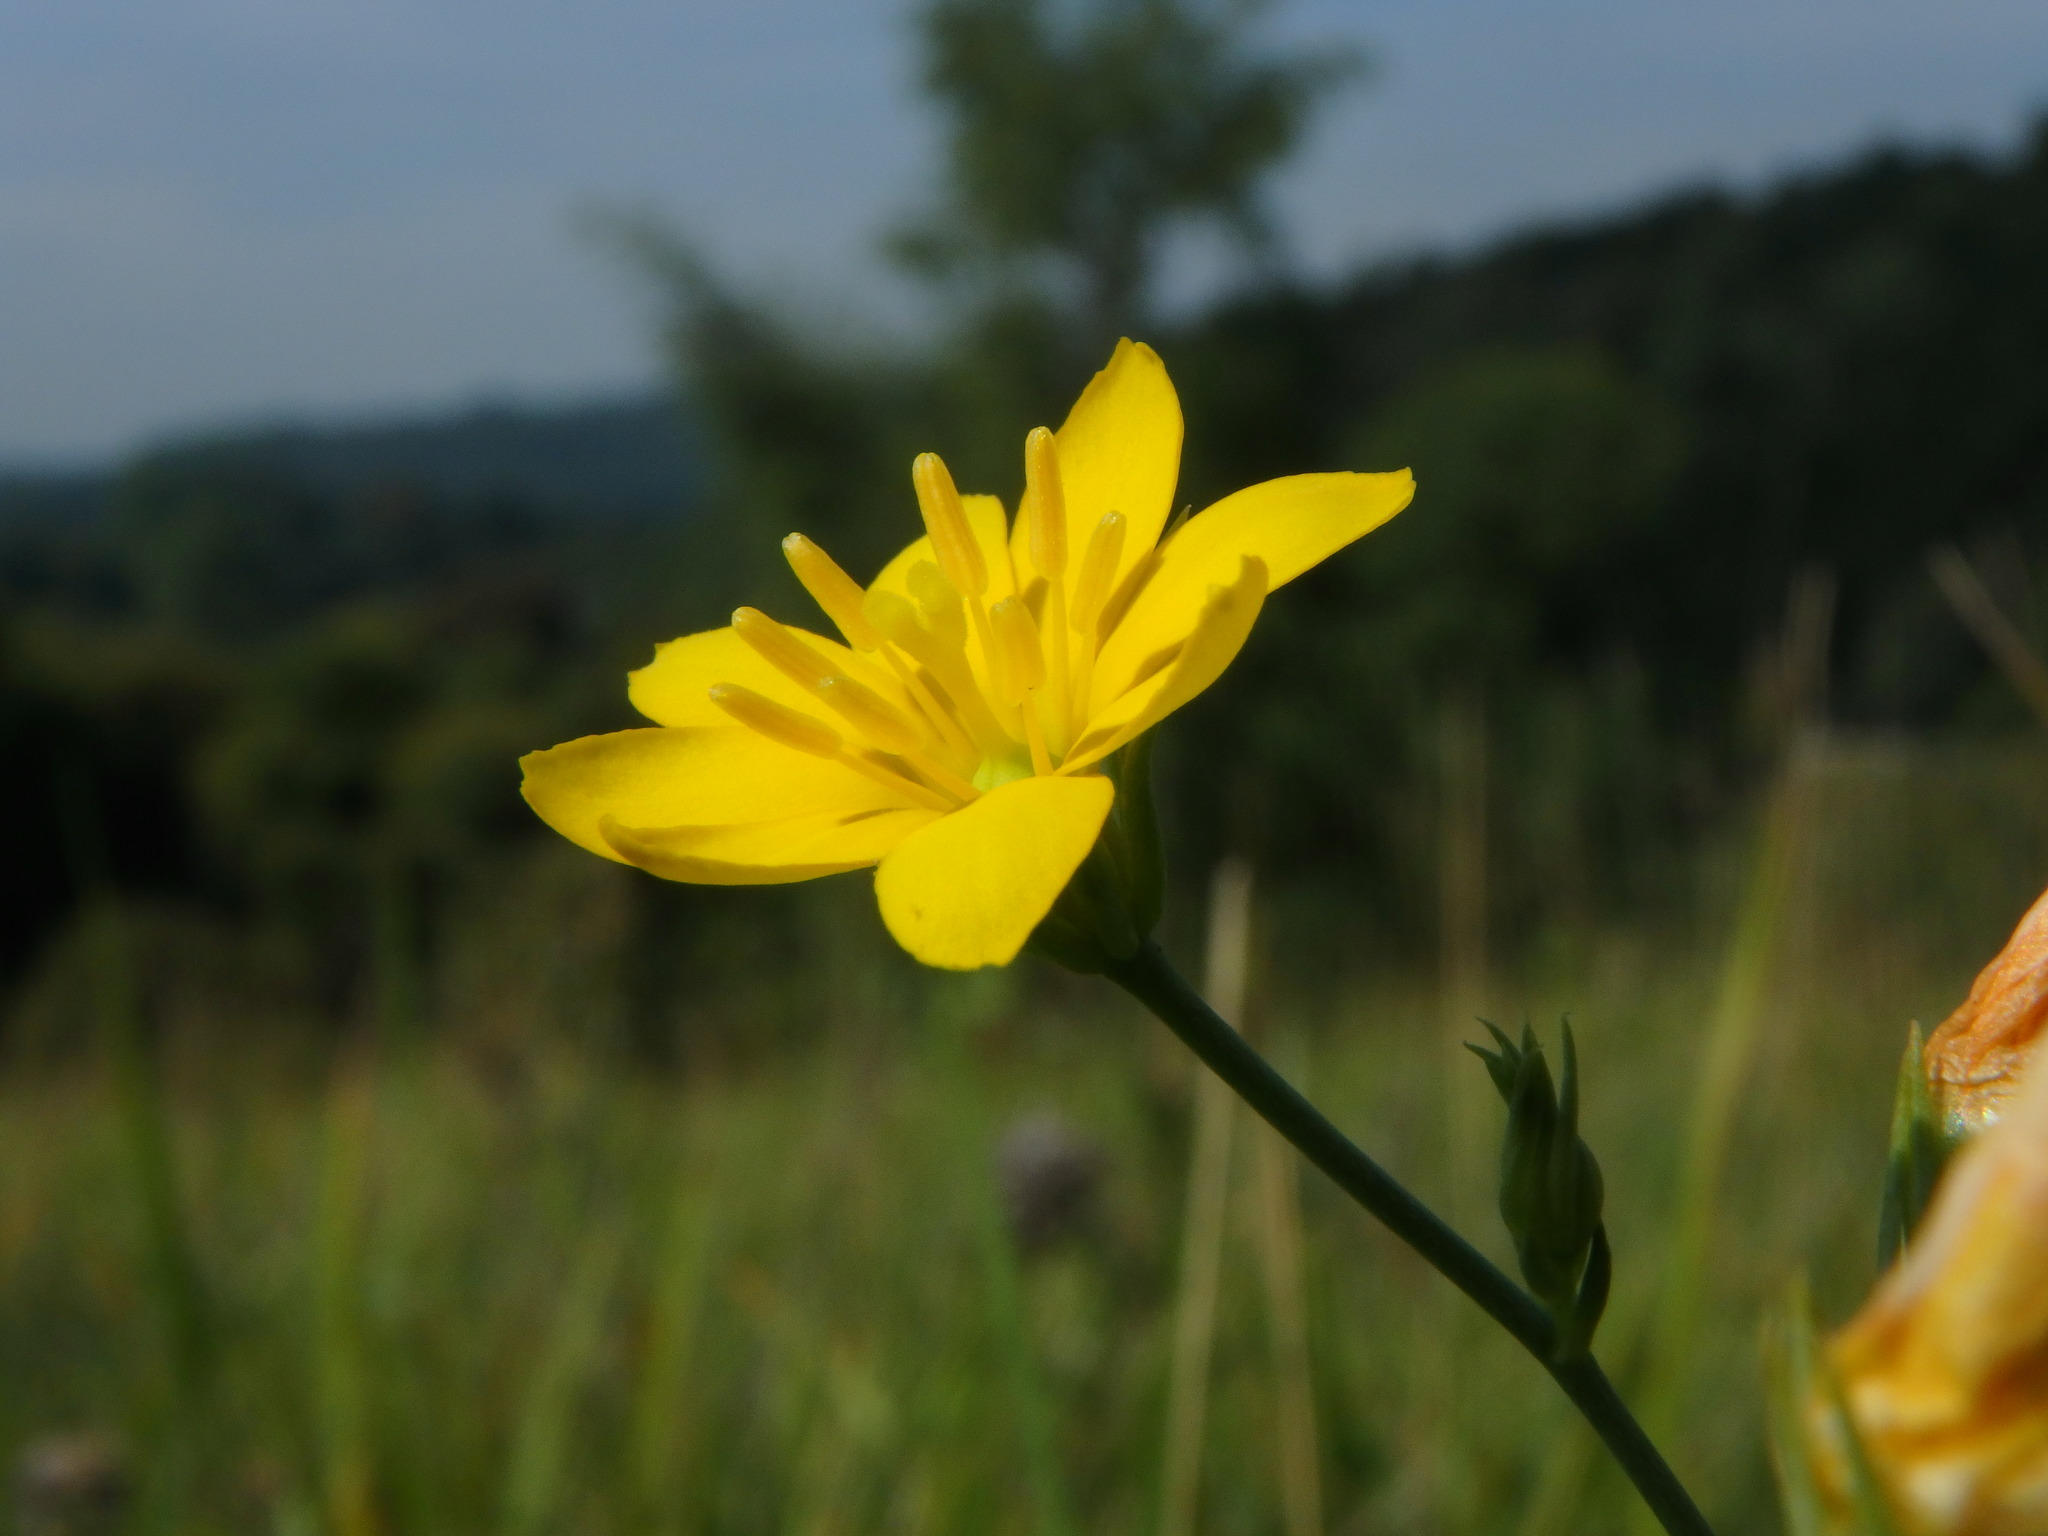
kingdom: Plantae
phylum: Tracheophyta
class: Magnoliopsida
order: Gentianales
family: Gentianaceae
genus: Blackstonia
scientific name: Blackstonia perfoliata
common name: Yellow-wort
